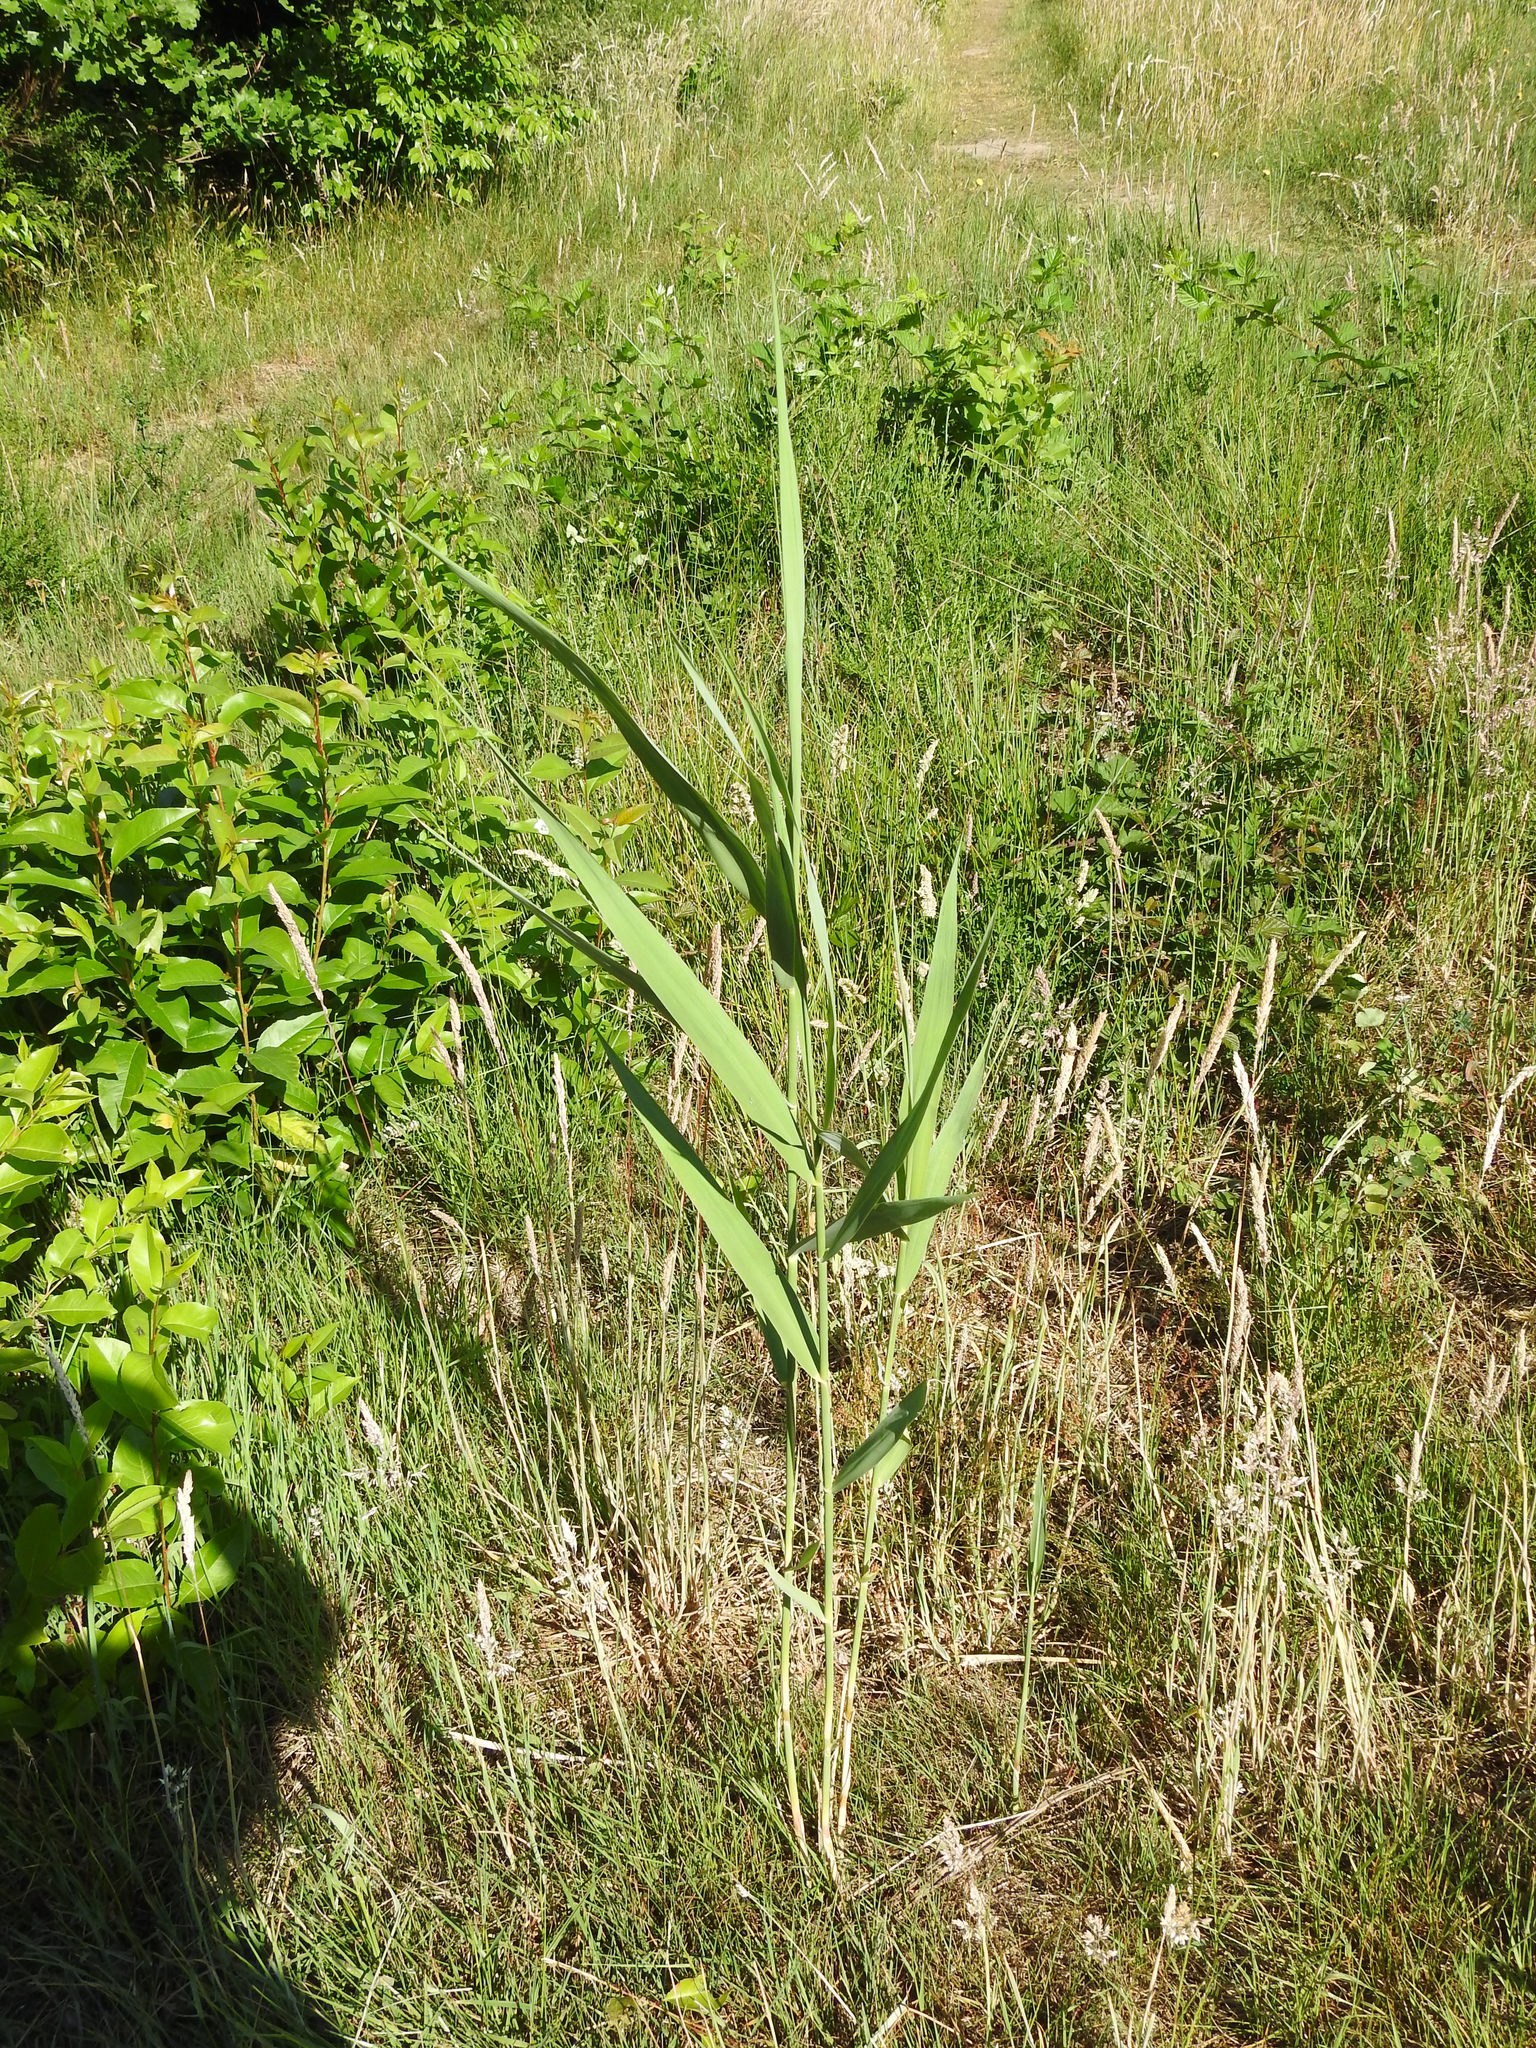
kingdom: Plantae
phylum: Tracheophyta
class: Liliopsida
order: Poales
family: Poaceae
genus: Phragmites
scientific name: Phragmites australis
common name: Common reed
